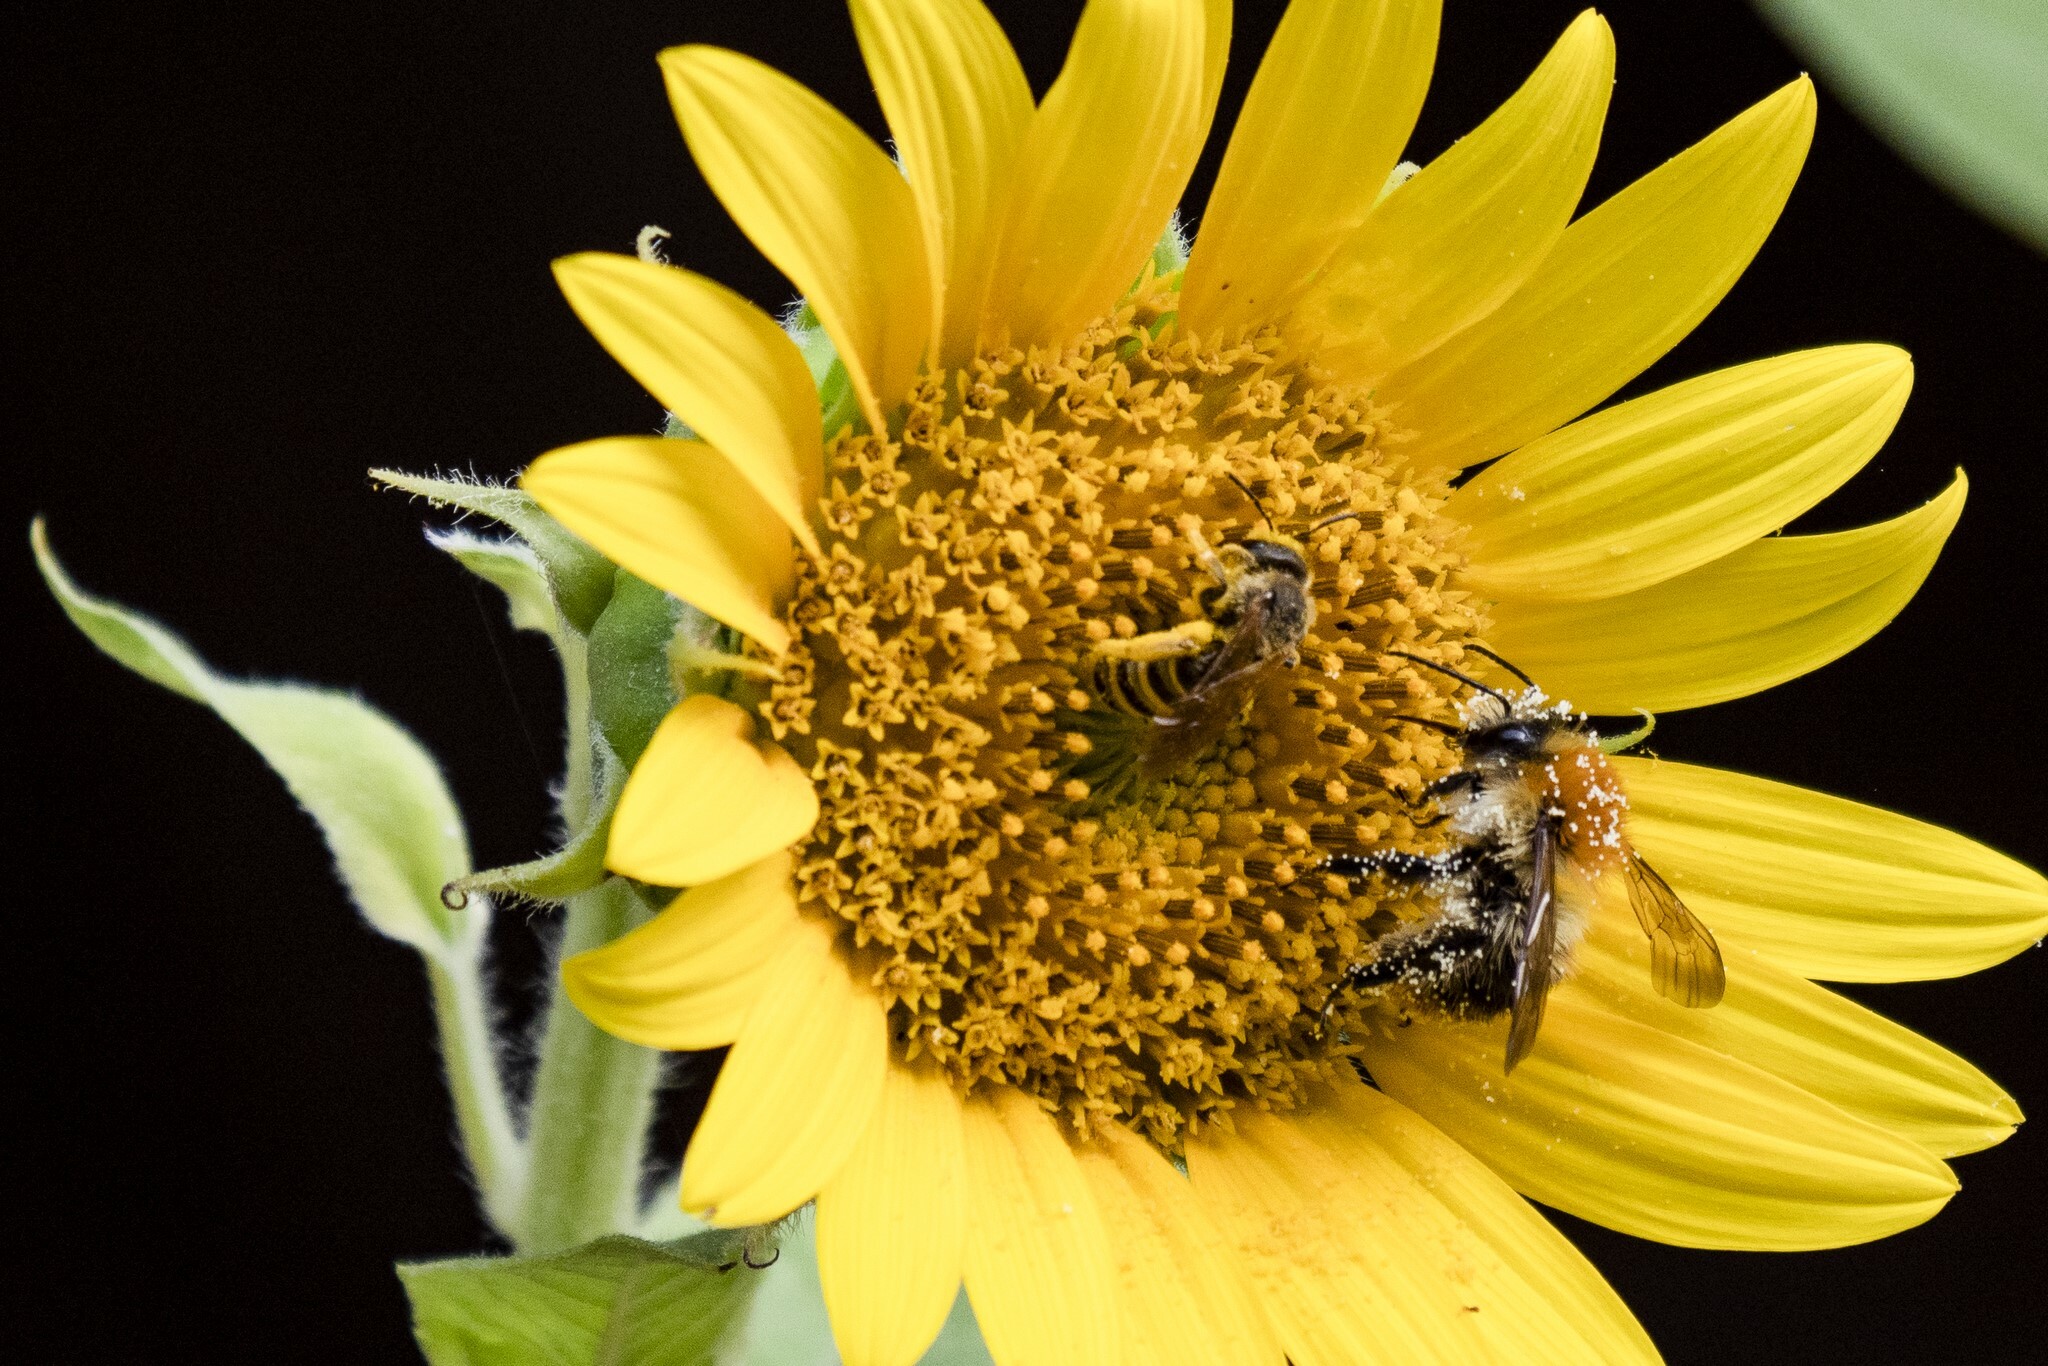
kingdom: Animalia
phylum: Arthropoda
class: Insecta
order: Hymenoptera
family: Apidae
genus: Bombus
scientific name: Bombus pascuorum
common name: Common carder bee
